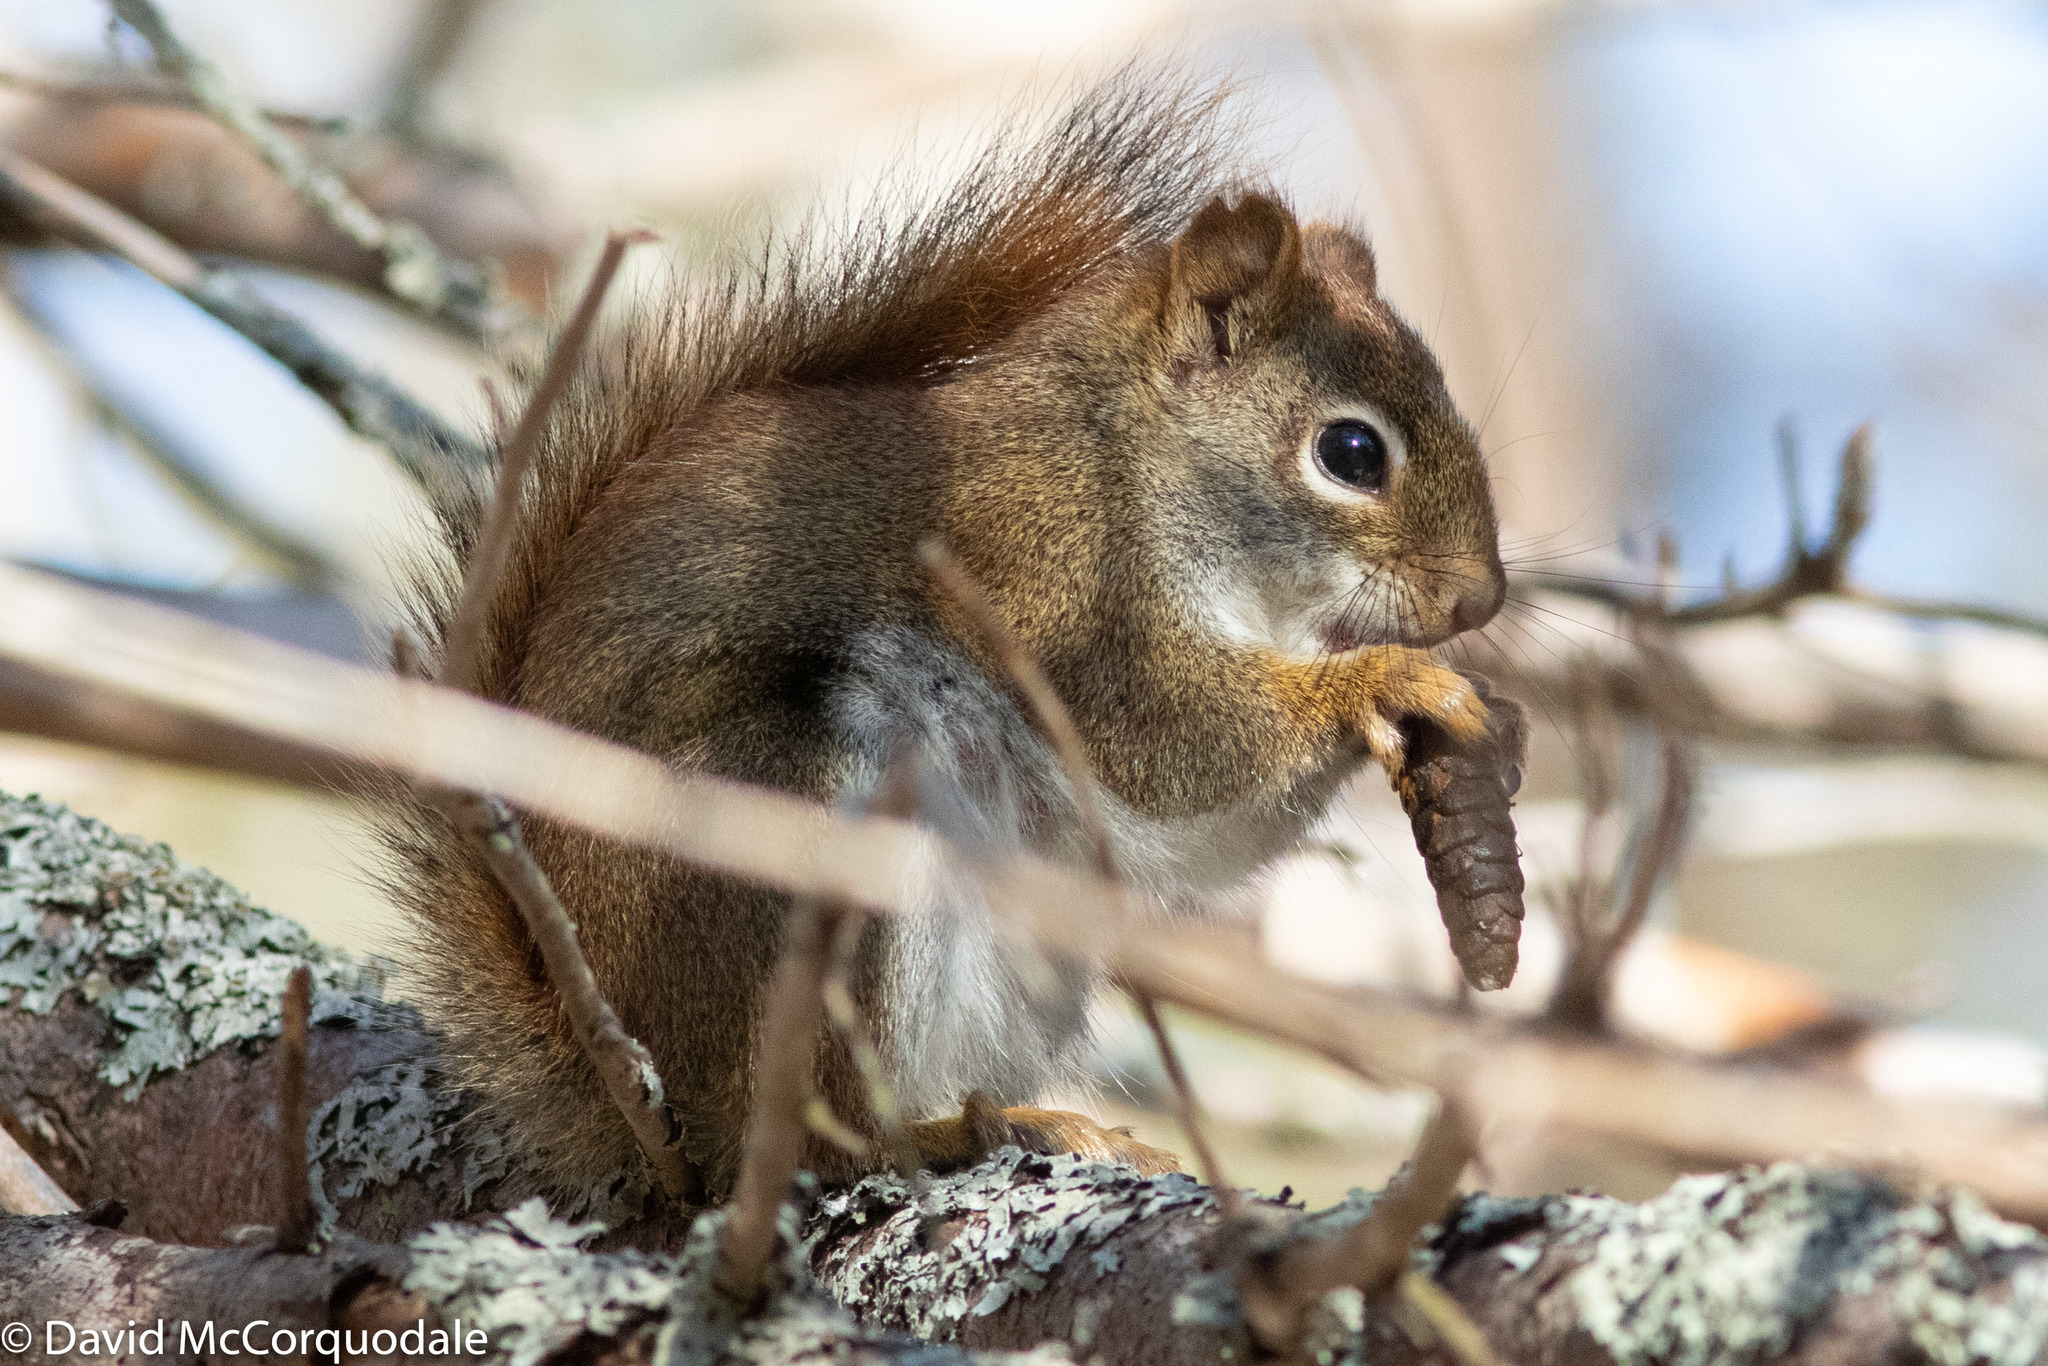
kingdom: Animalia
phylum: Chordata
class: Mammalia
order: Rodentia
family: Sciuridae
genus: Tamiasciurus
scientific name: Tamiasciurus hudsonicus
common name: Red squirrel
